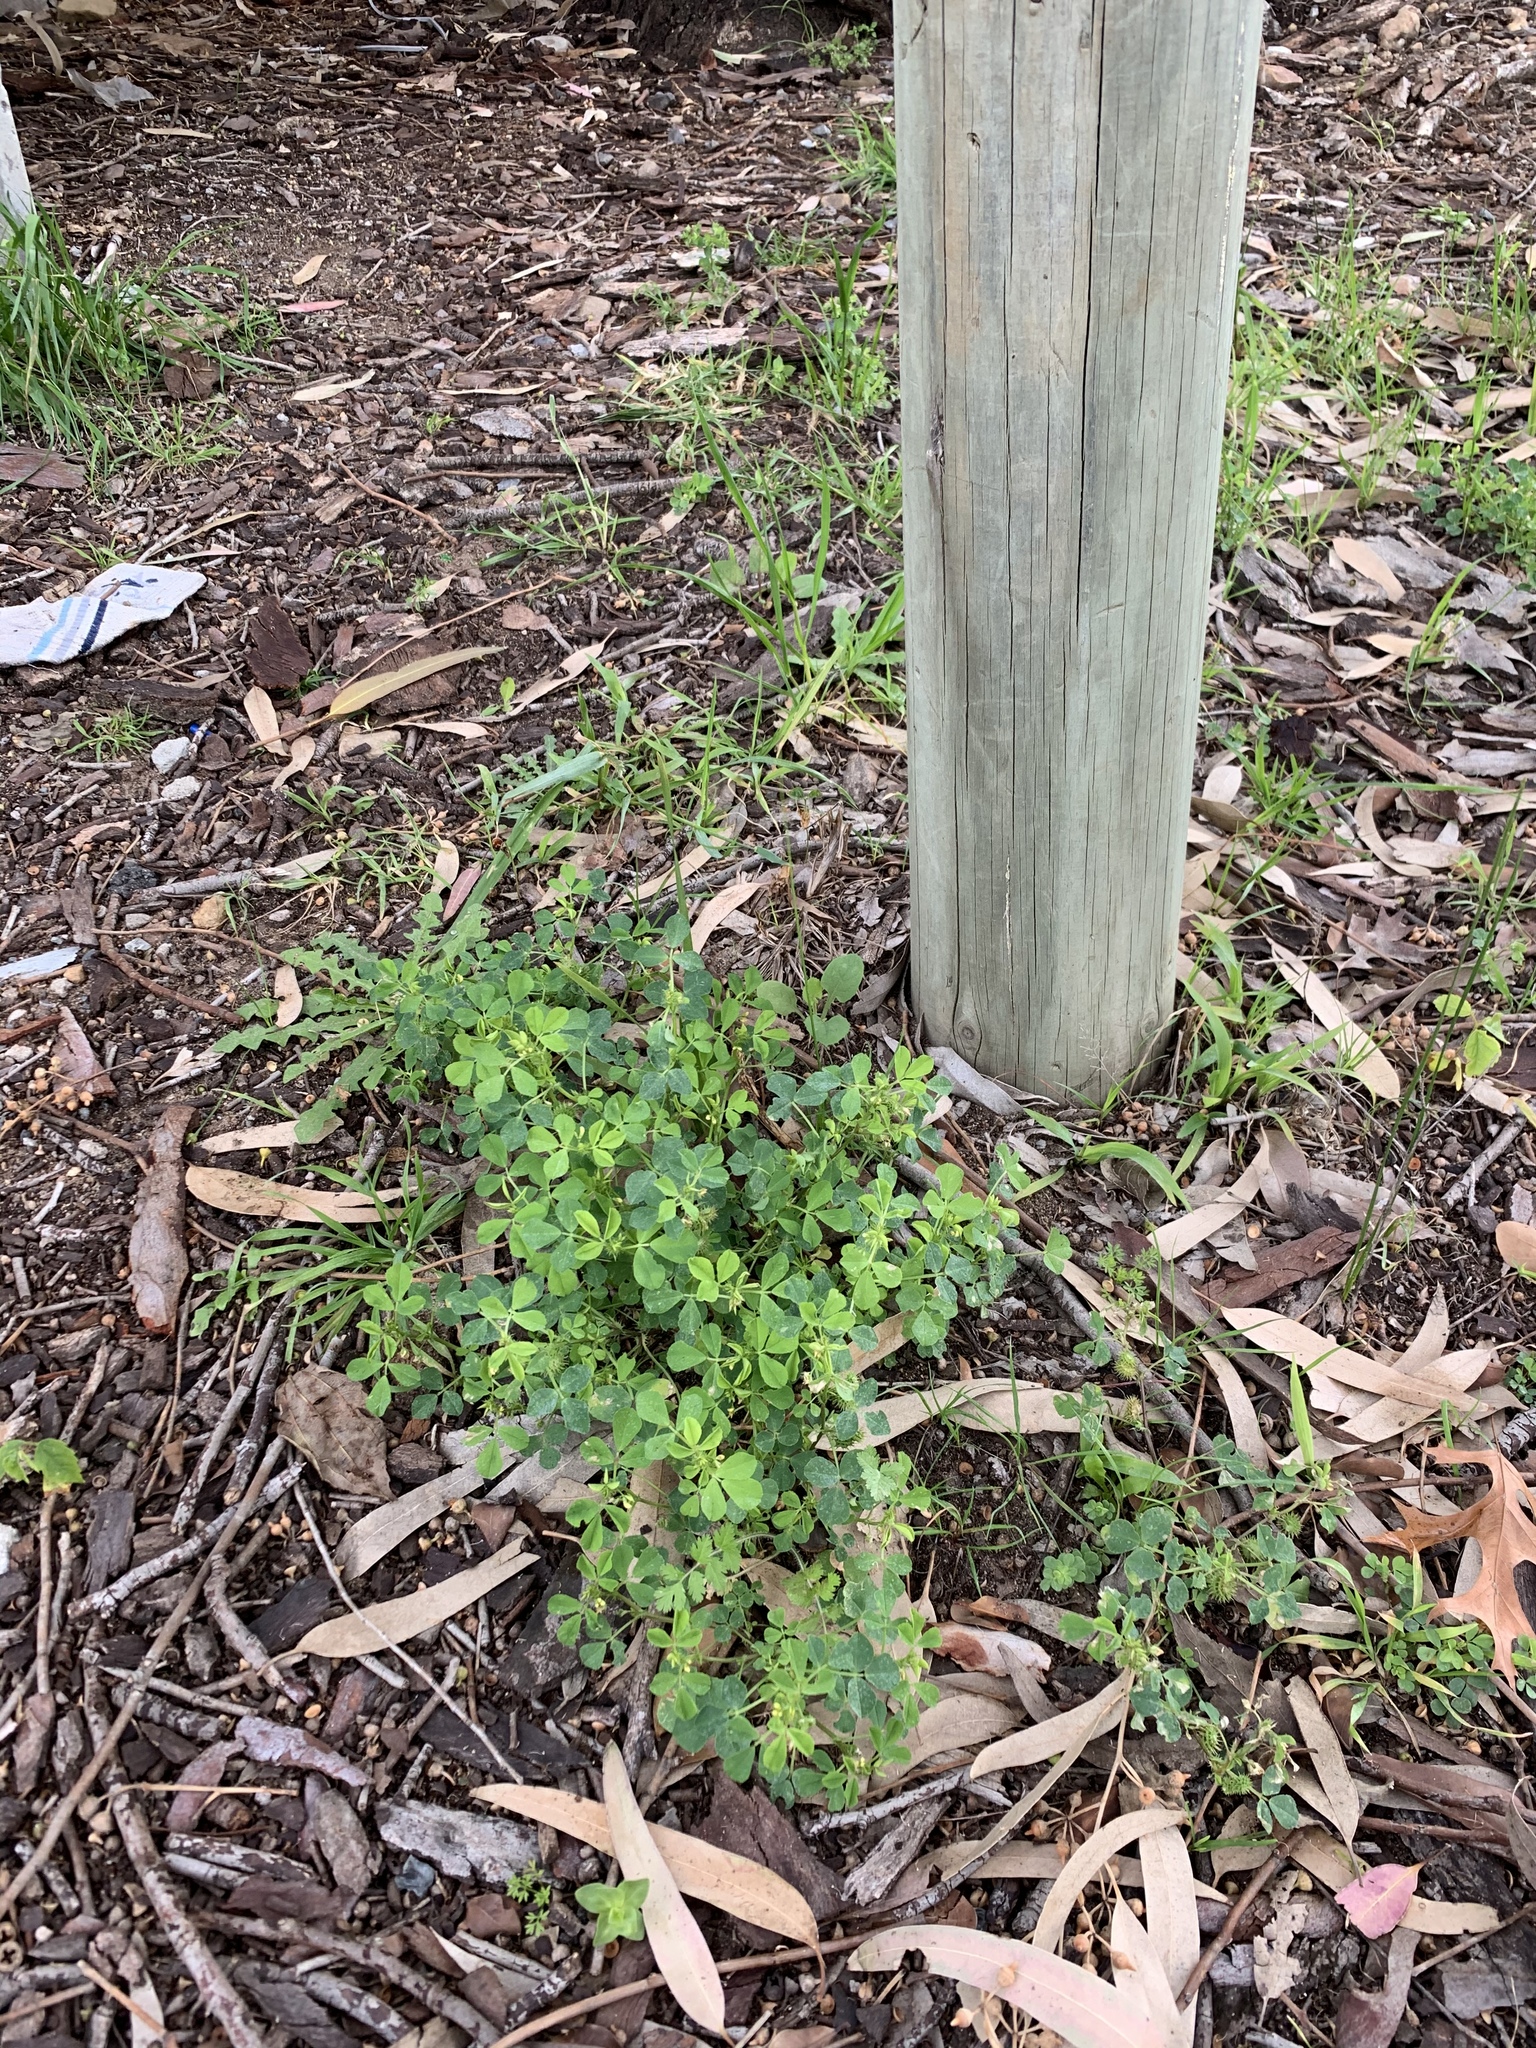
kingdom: Plantae
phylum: Tracheophyta
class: Magnoliopsida
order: Fabales
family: Fabaceae
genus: Medicago
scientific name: Medicago polymorpha
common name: Burclover
